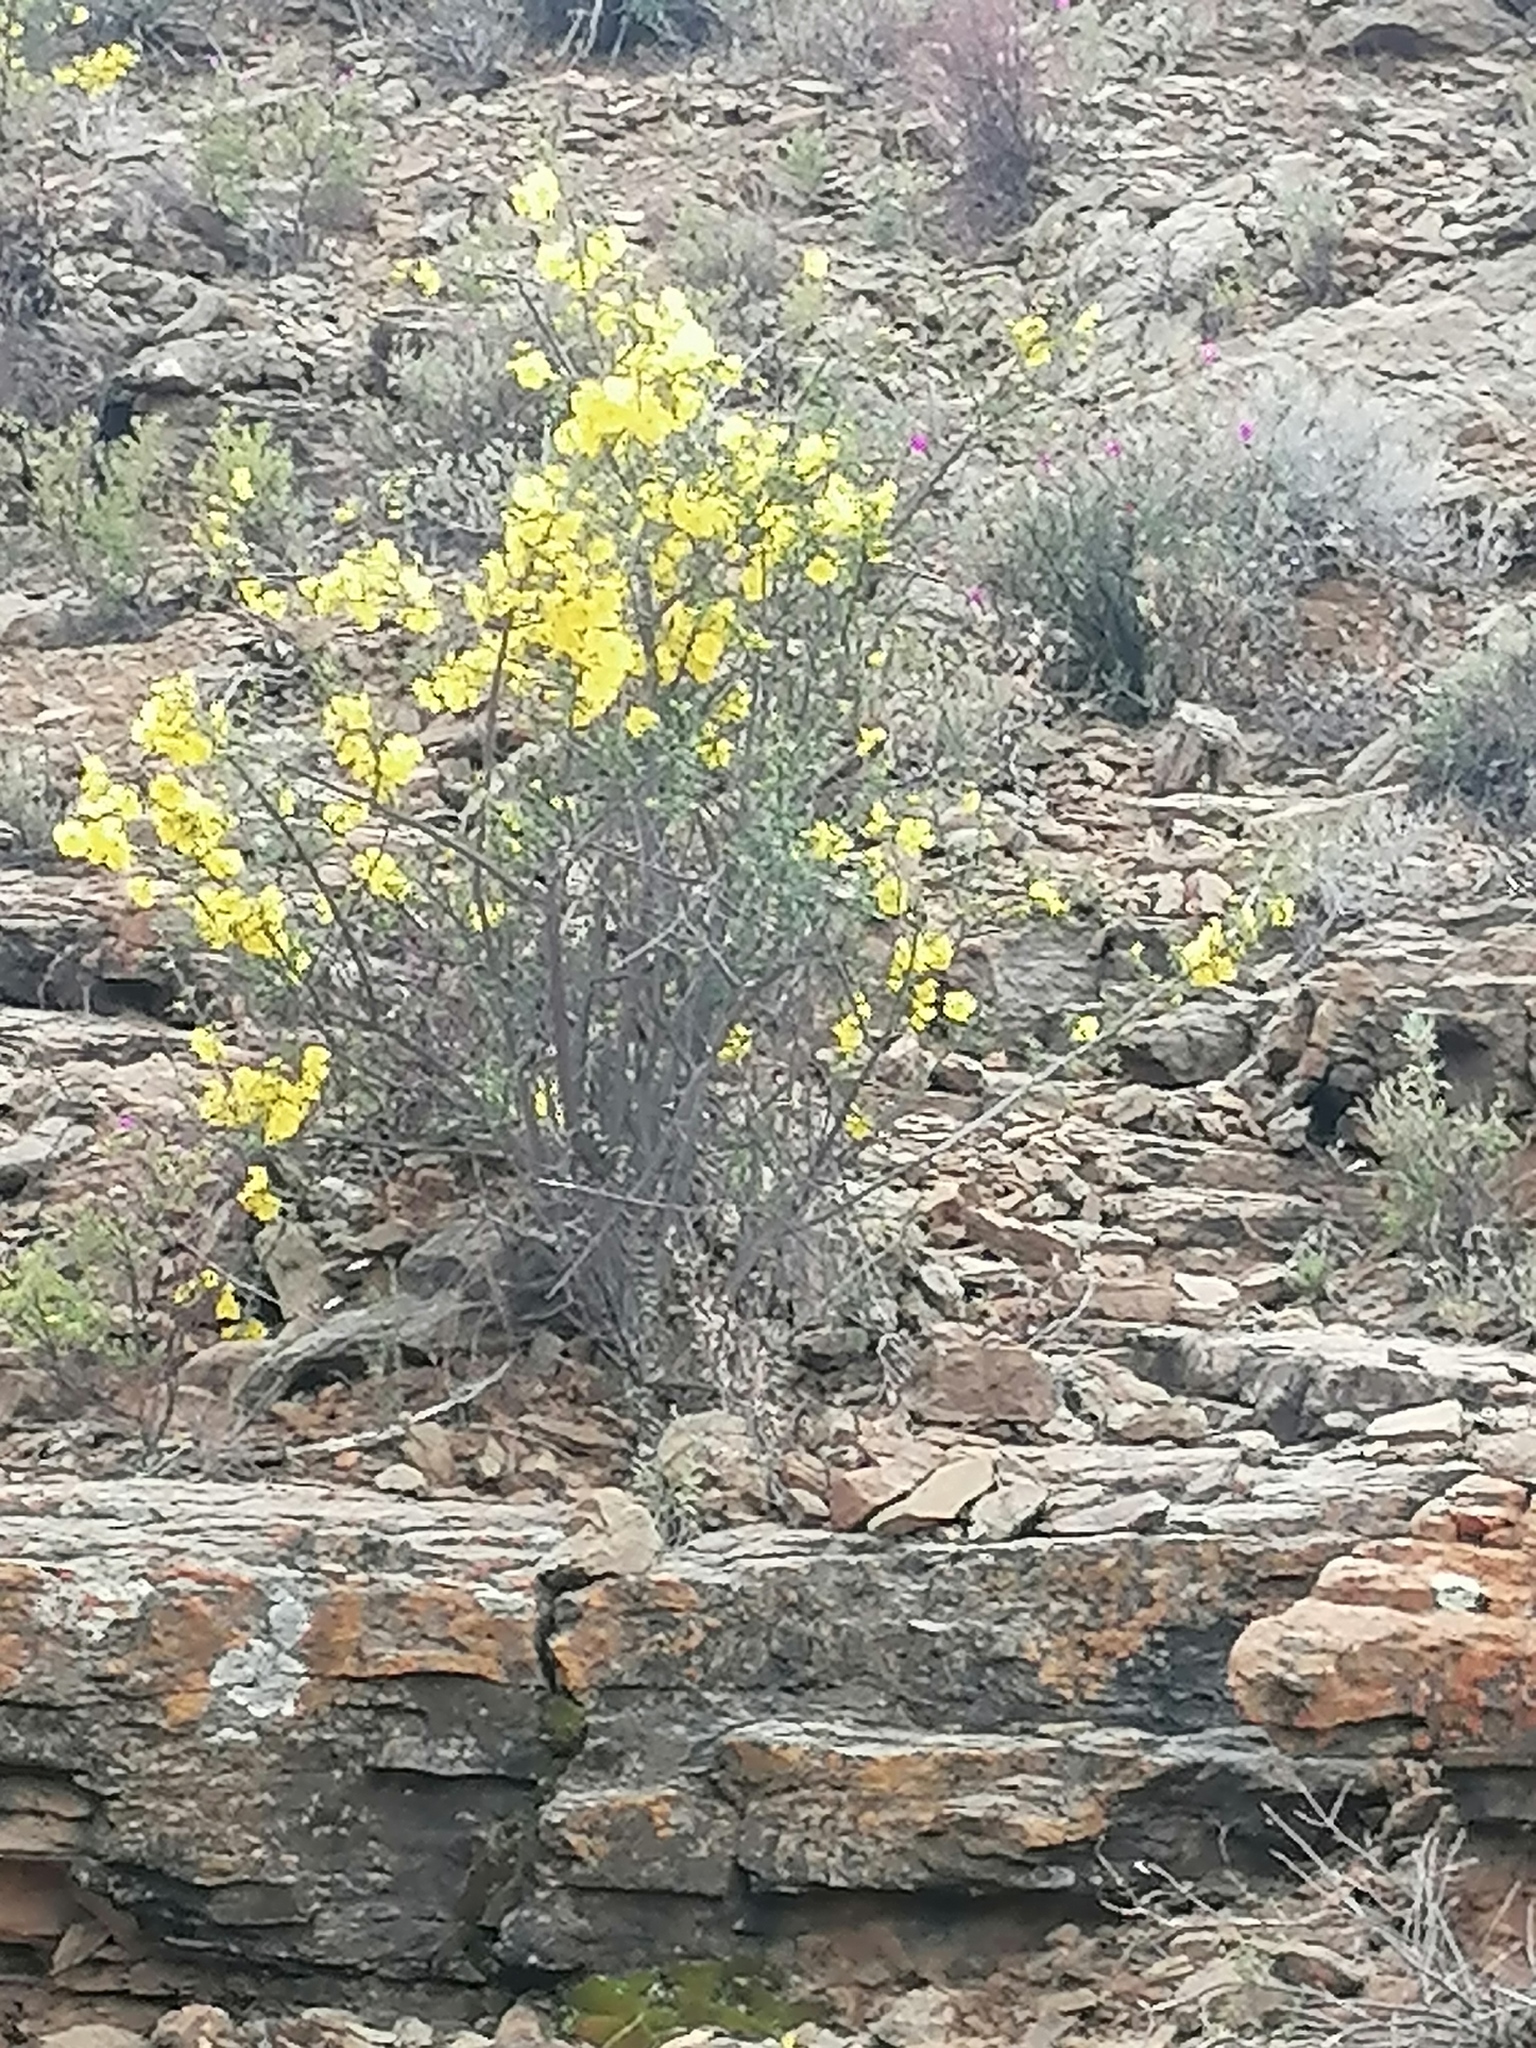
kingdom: Plantae
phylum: Tracheophyta
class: Magnoliopsida
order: Lamiales
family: Bignoniaceae
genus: Rhigozum
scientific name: Rhigozum obovatum
